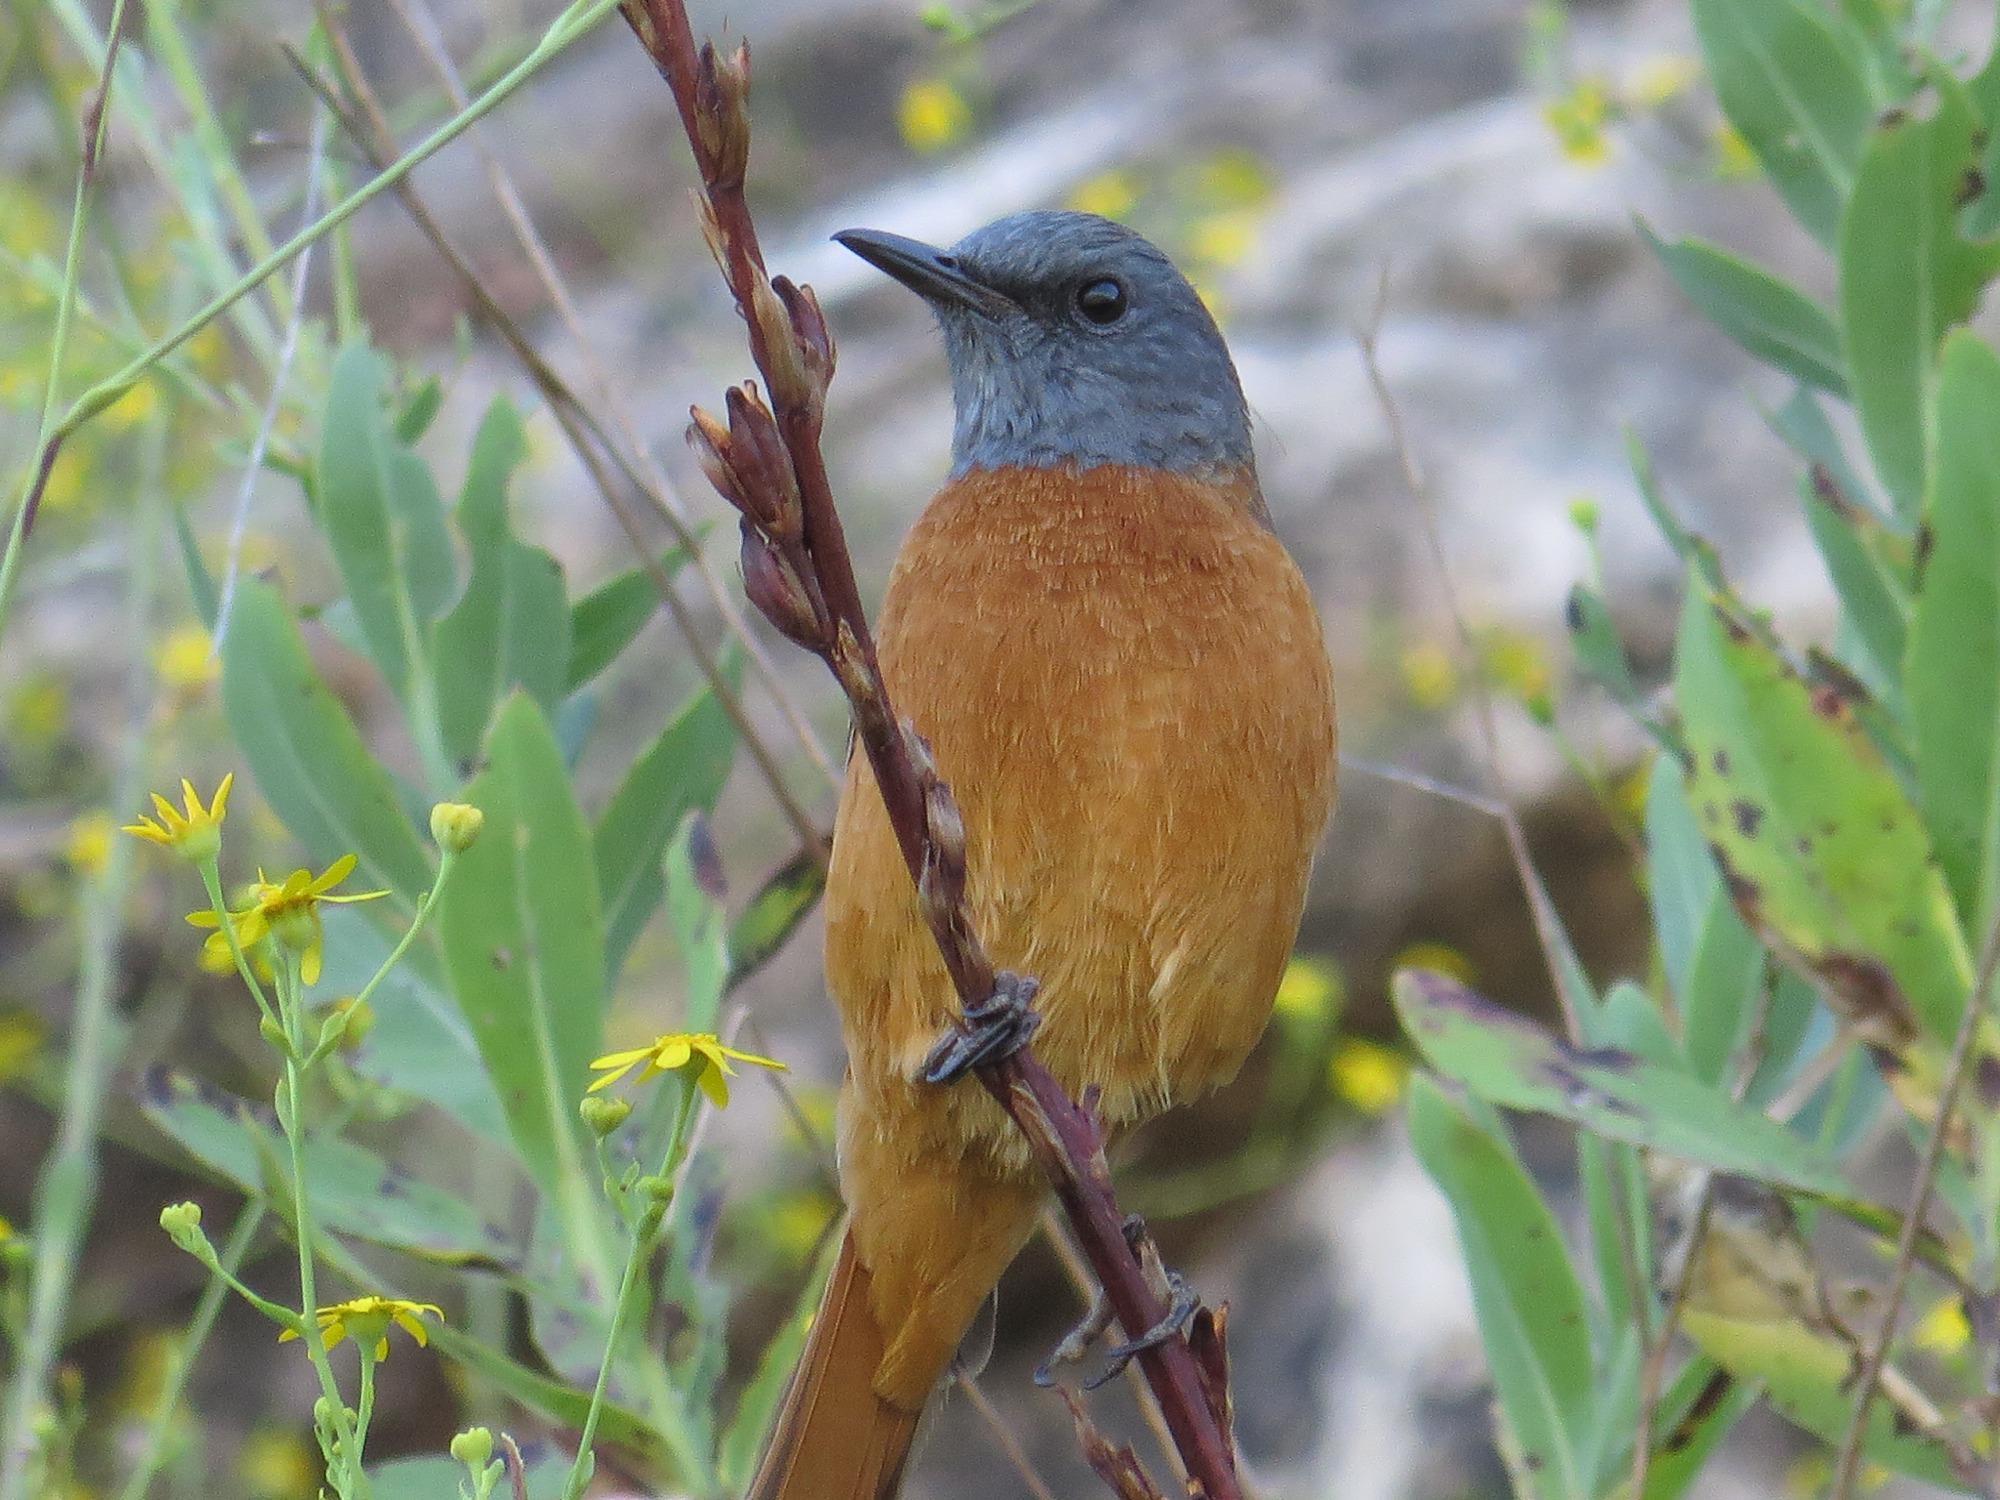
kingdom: Animalia
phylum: Chordata
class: Aves
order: Passeriformes
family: Muscicapidae
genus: Monticola
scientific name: Monticola rupestris
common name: Cape rock thrush
